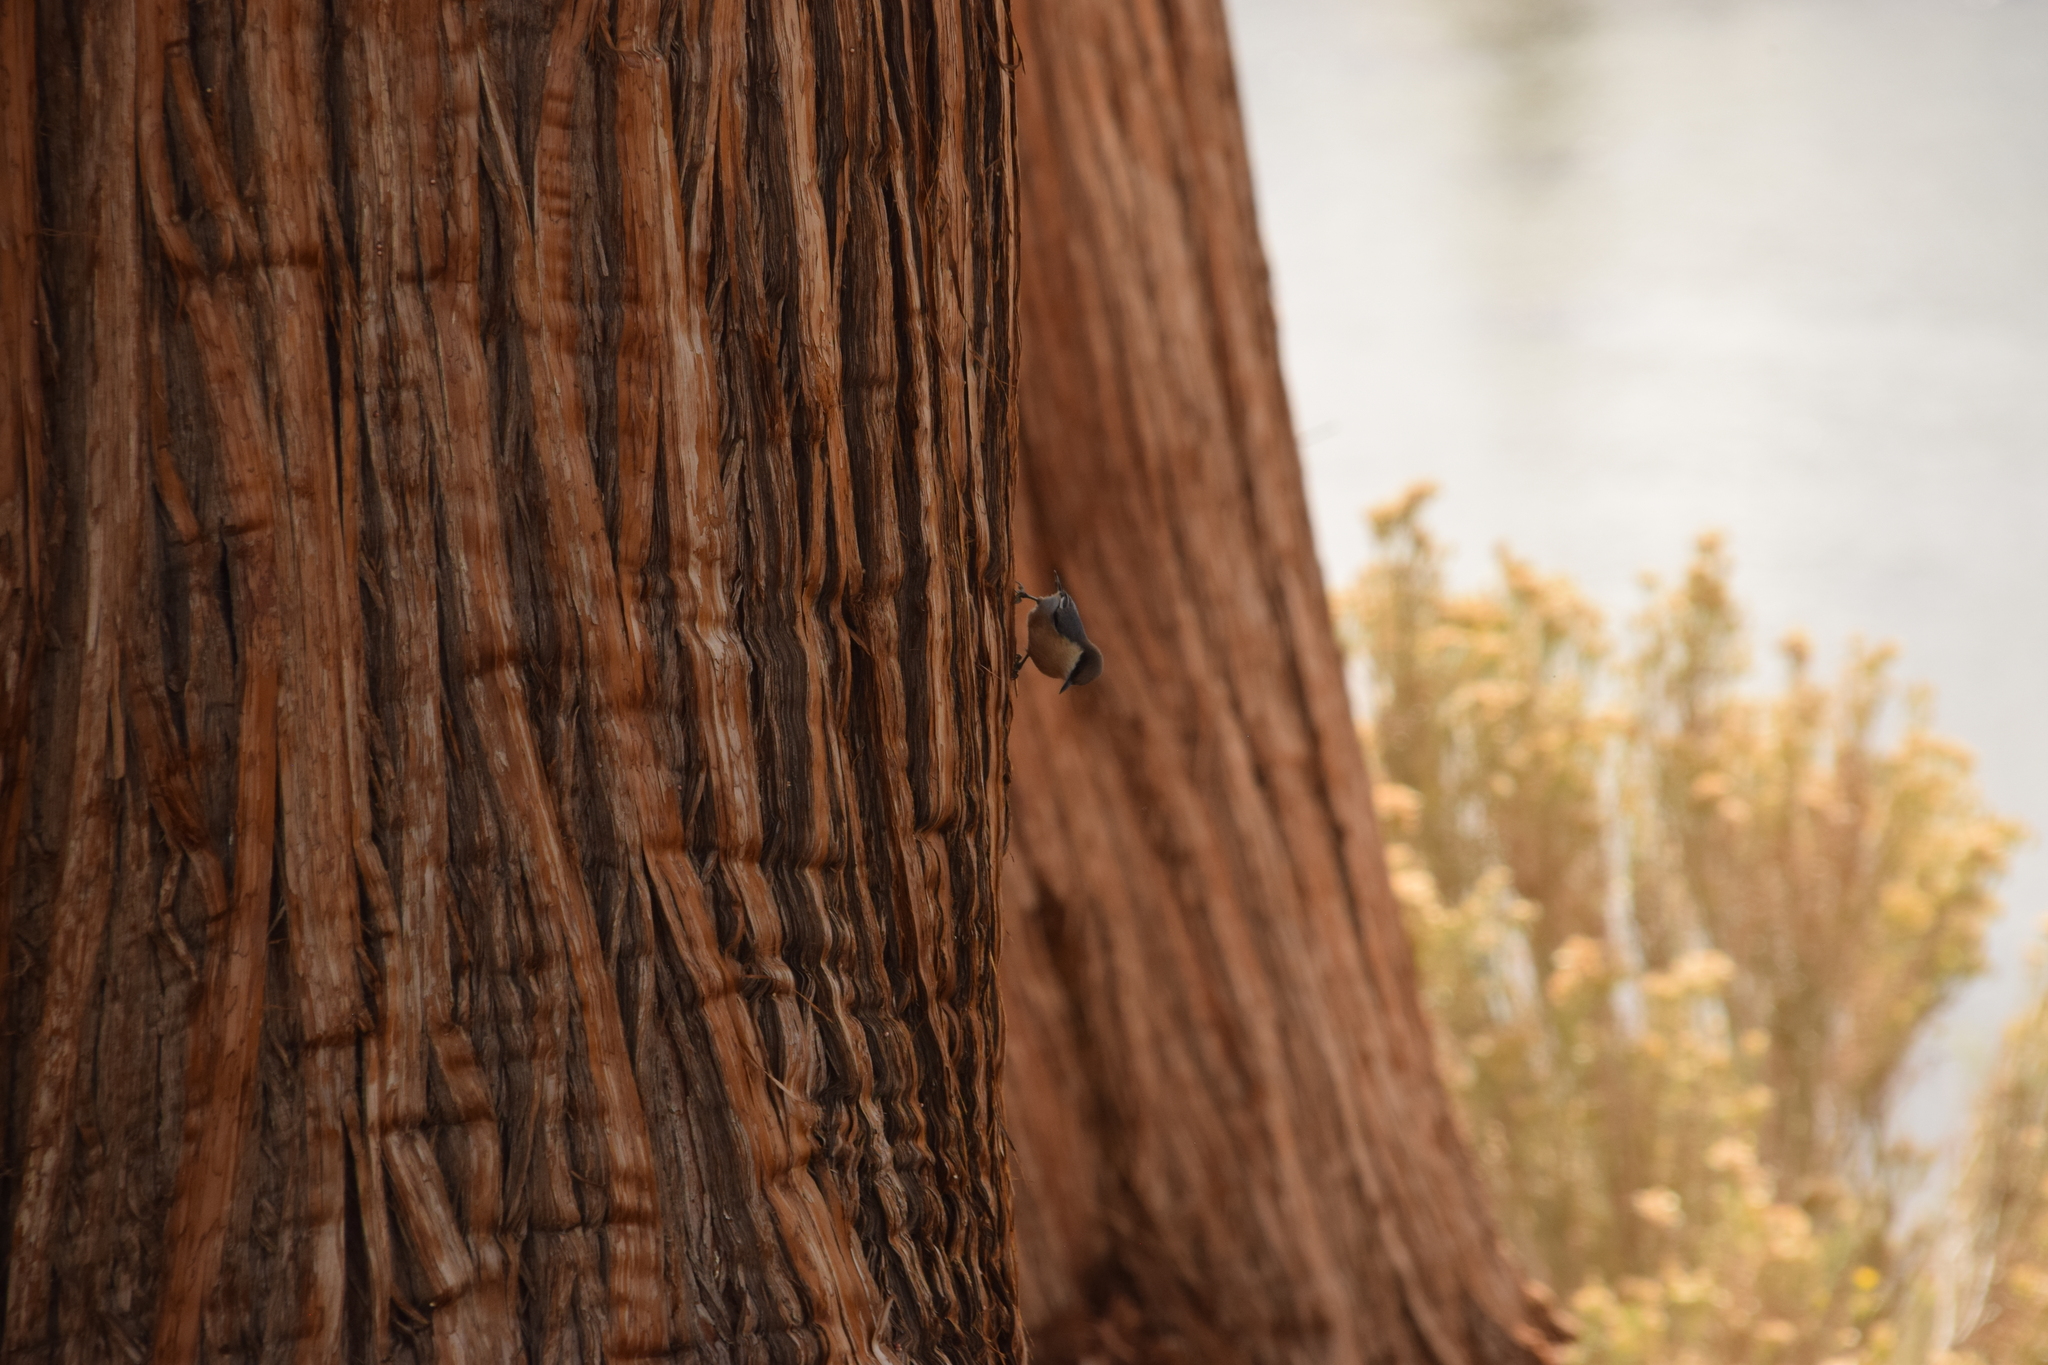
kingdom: Animalia
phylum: Chordata
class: Aves
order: Passeriformes
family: Sittidae
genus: Sitta
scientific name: Sitta pygmaea
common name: Pygmy nuthatch
